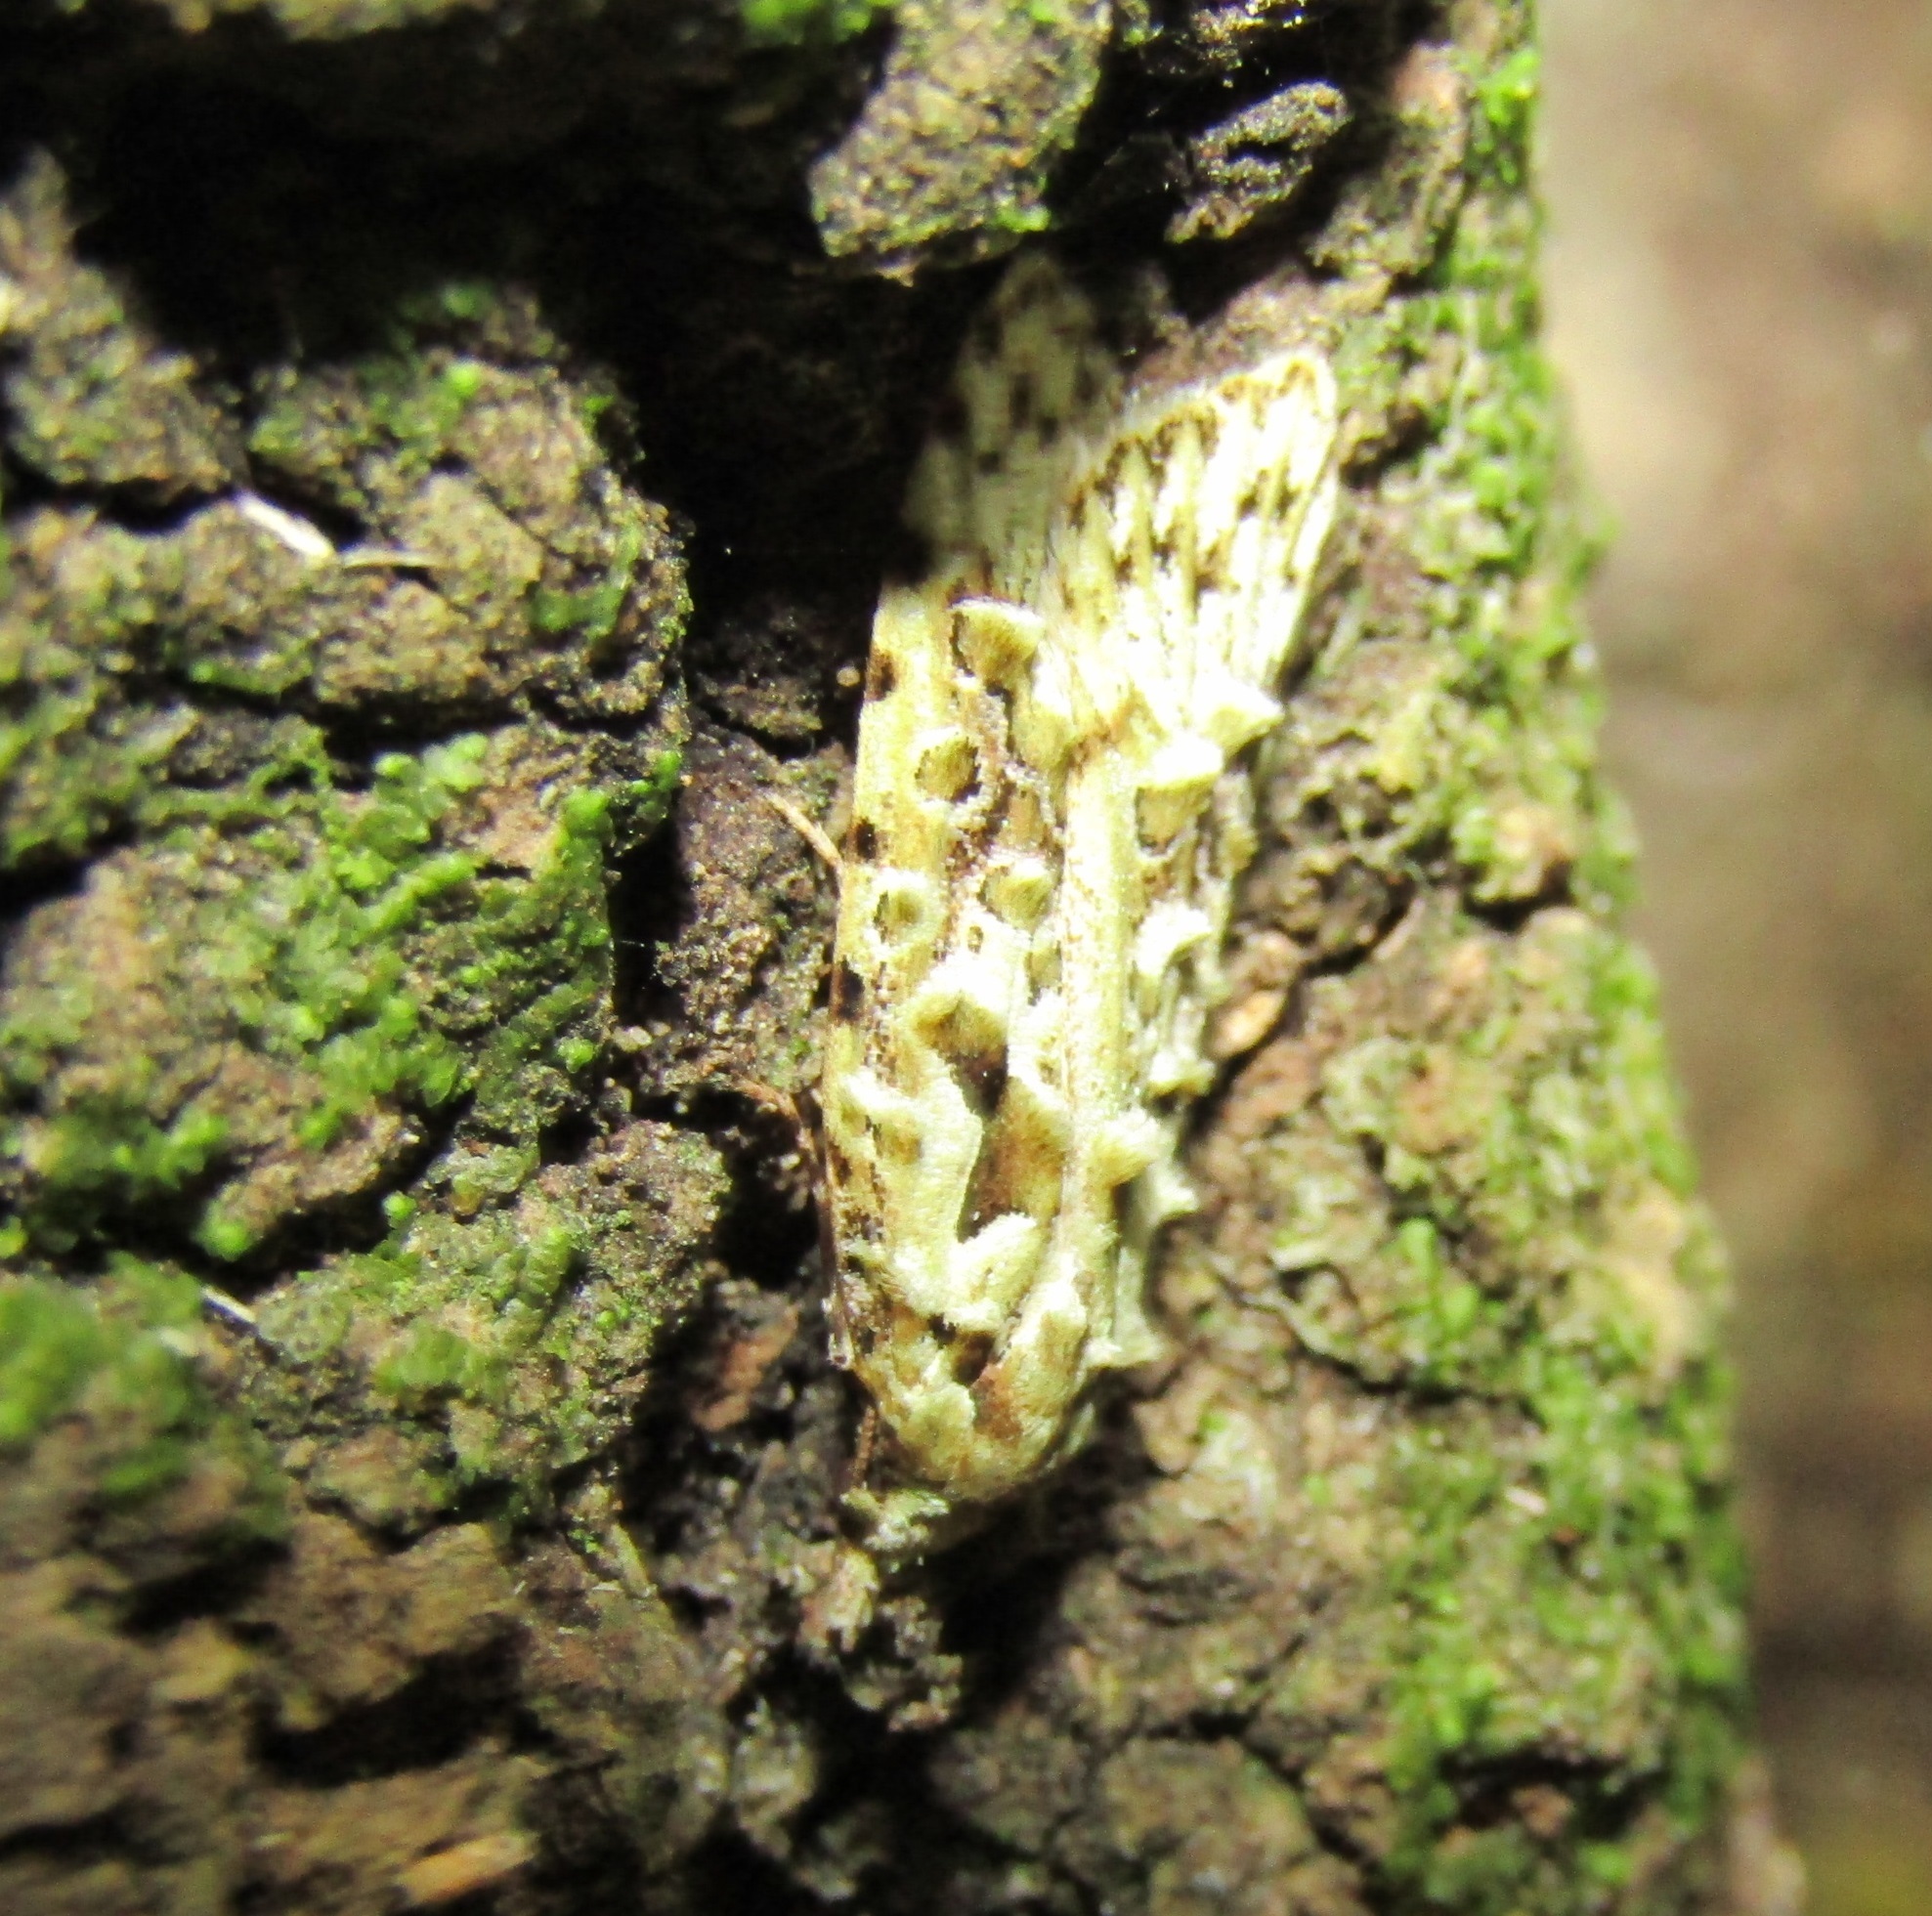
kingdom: Animalia
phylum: Arthropoda
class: Insecta
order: Lepidoptera
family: Carposinidae
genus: Carposina
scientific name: Carposina Heterocrossa eriphylla
